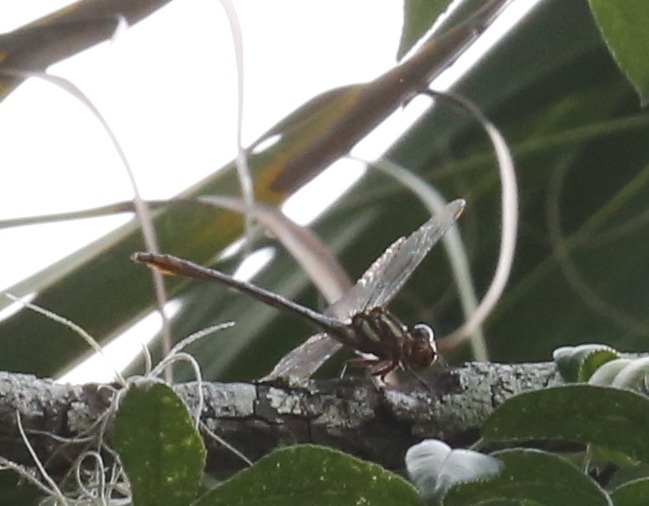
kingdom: Animalia
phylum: Arthropoda
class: Insecta
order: Odonata
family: Gomphidae
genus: Aphylla
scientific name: Aphylla williamsoni
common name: Two-striped forceptail
